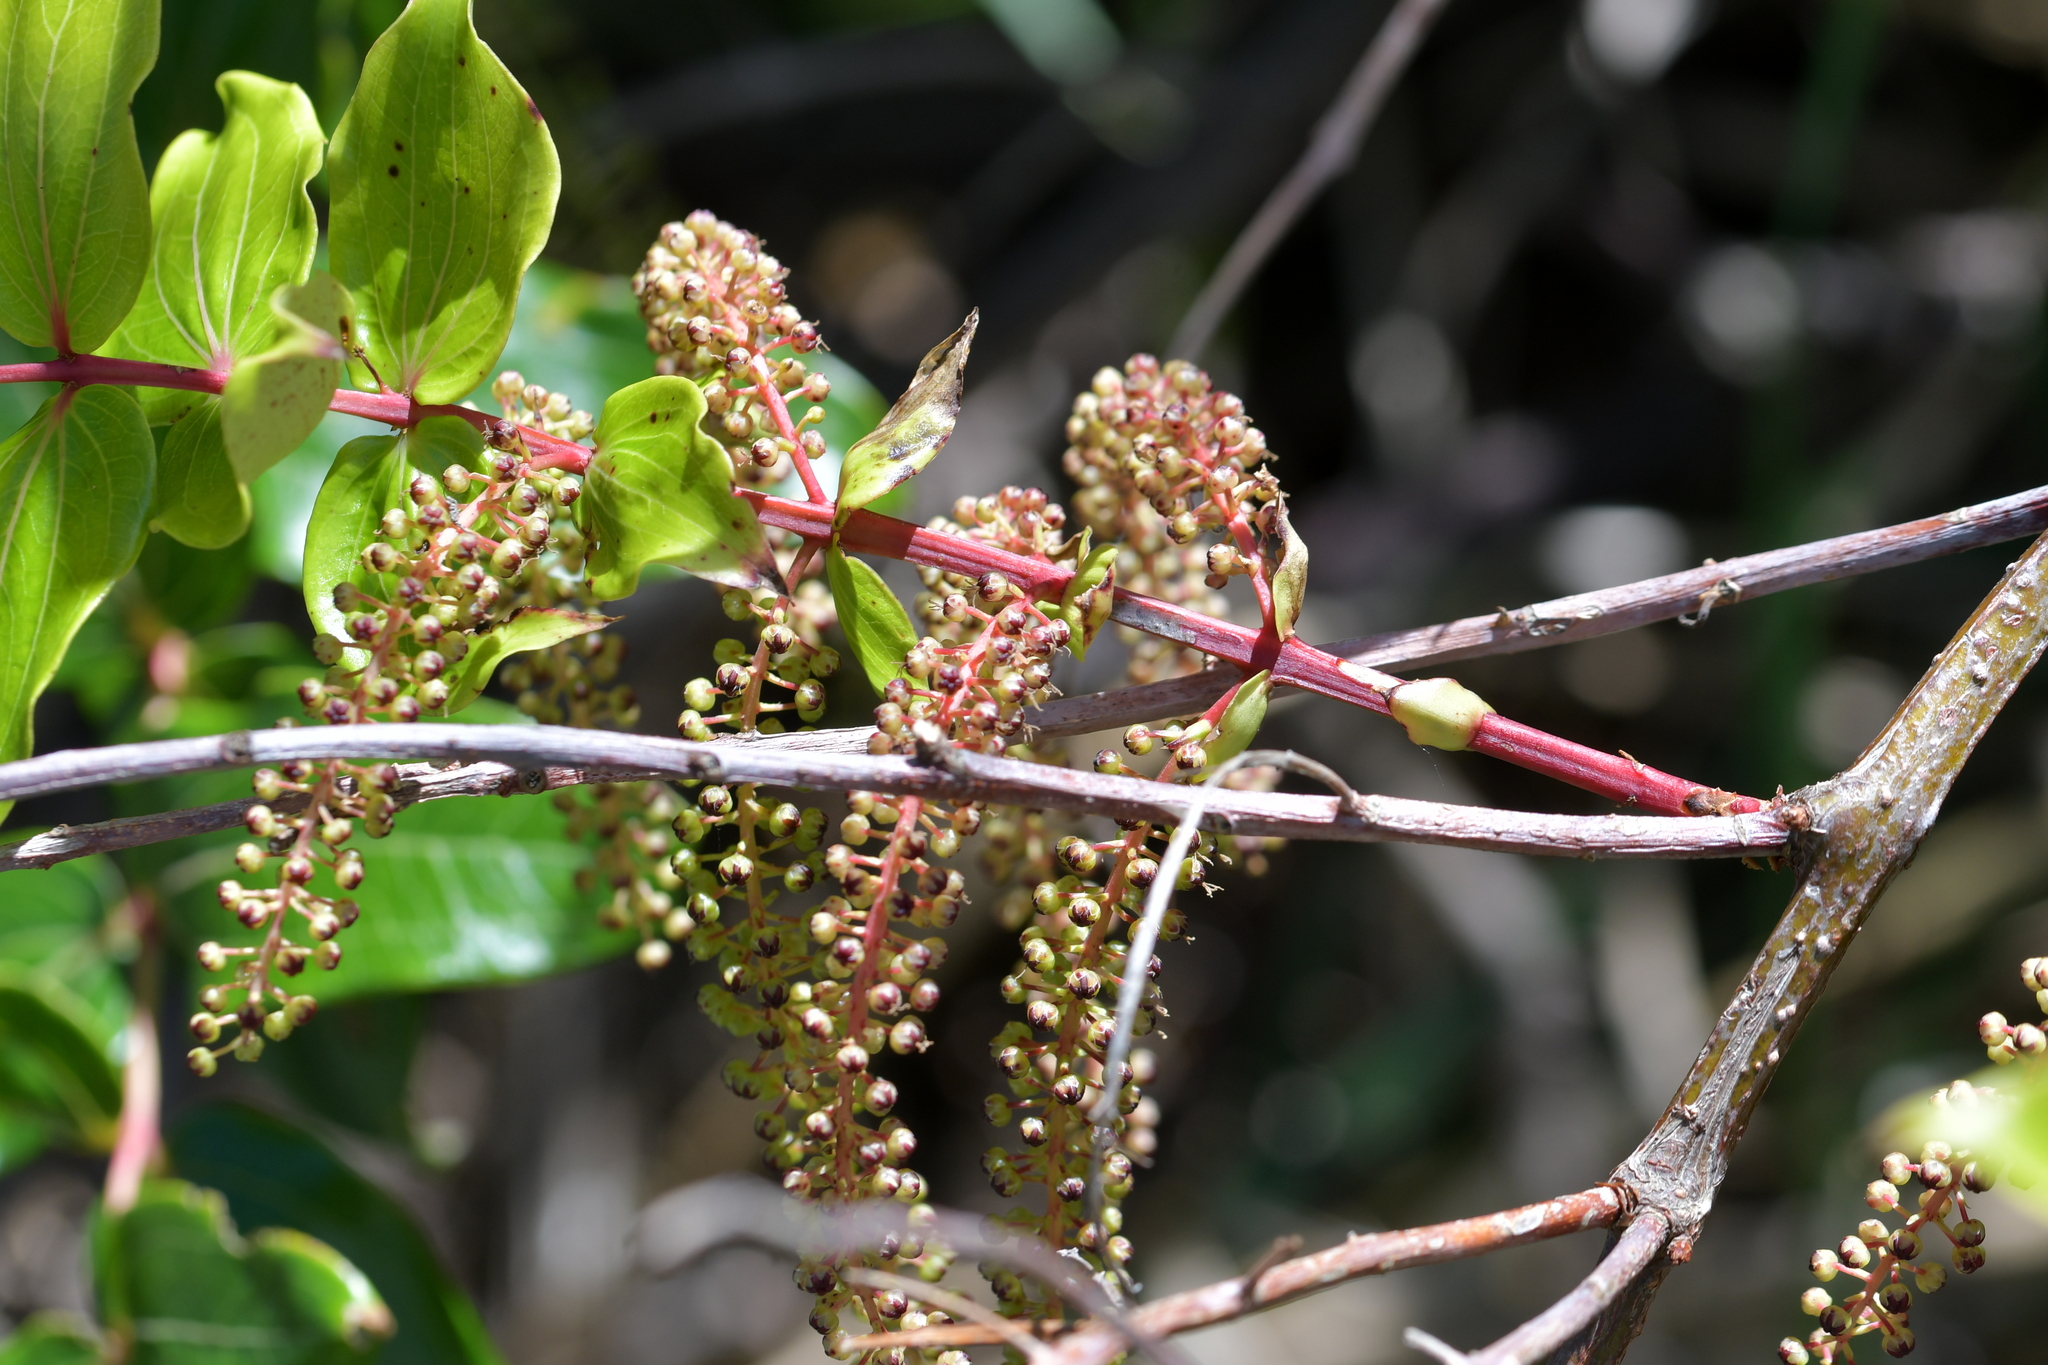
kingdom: Plantae
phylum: Tracheophyta
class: Magnoliopsida
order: Cucurbitales
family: Coriariaceae
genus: Coriaria
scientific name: Coriaria arborea
